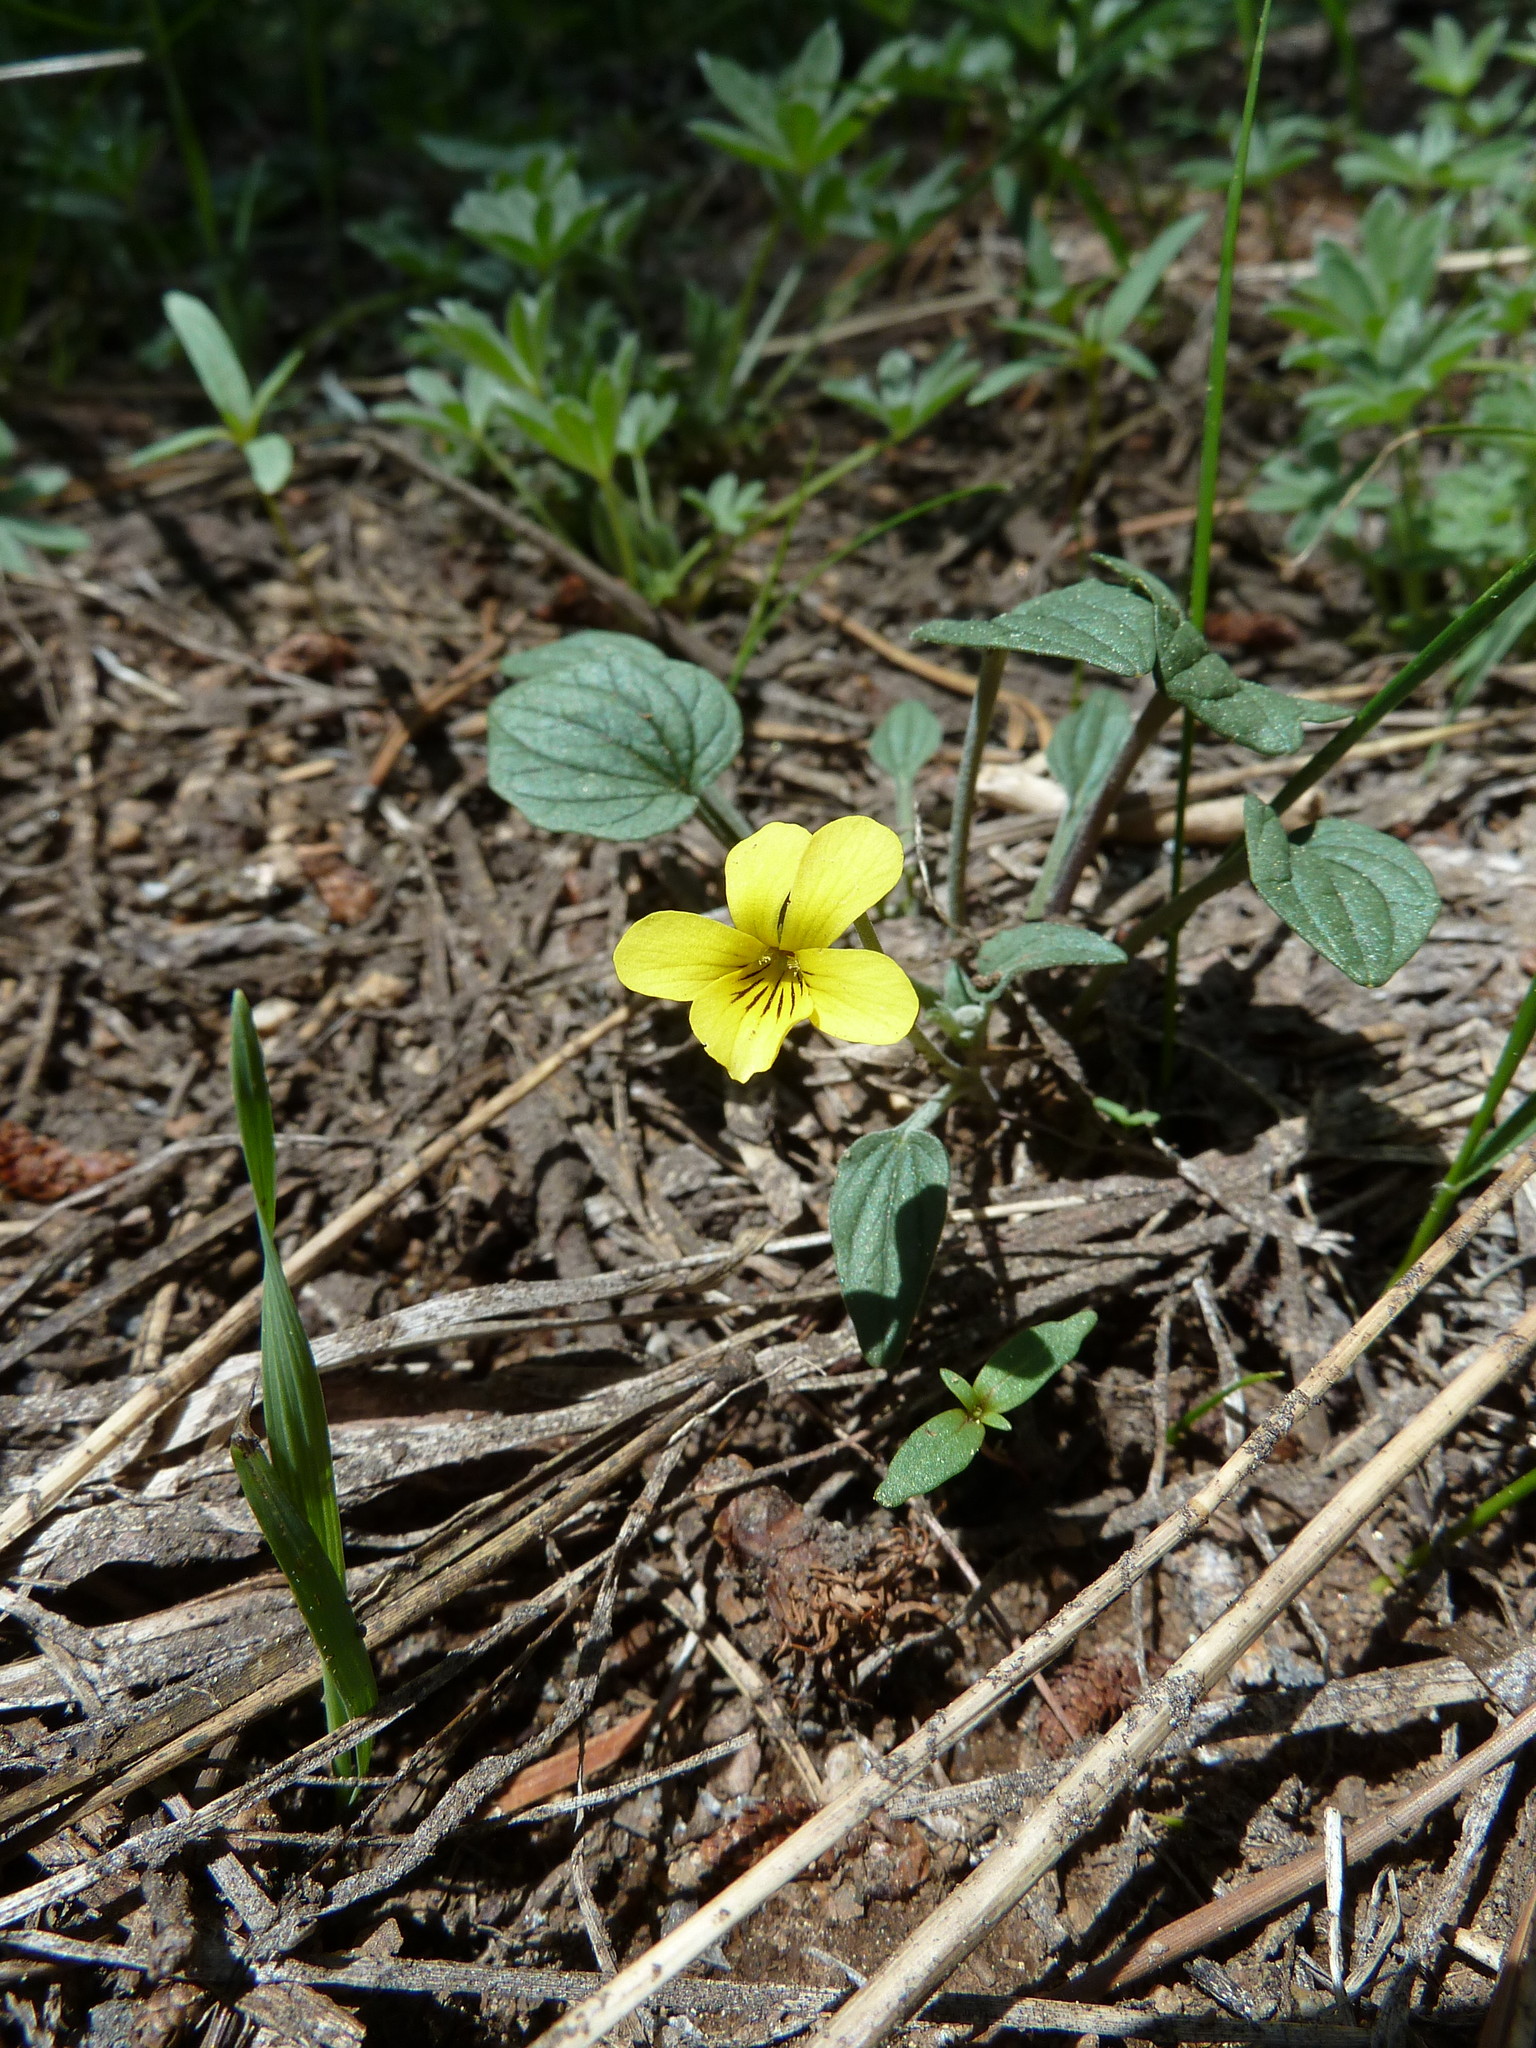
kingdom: Plantae
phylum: Tracheophyta
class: Magnoliopsida
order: Malpighiales
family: Violaceae
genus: Viola
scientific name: Viola purpurea
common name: Pine violet
